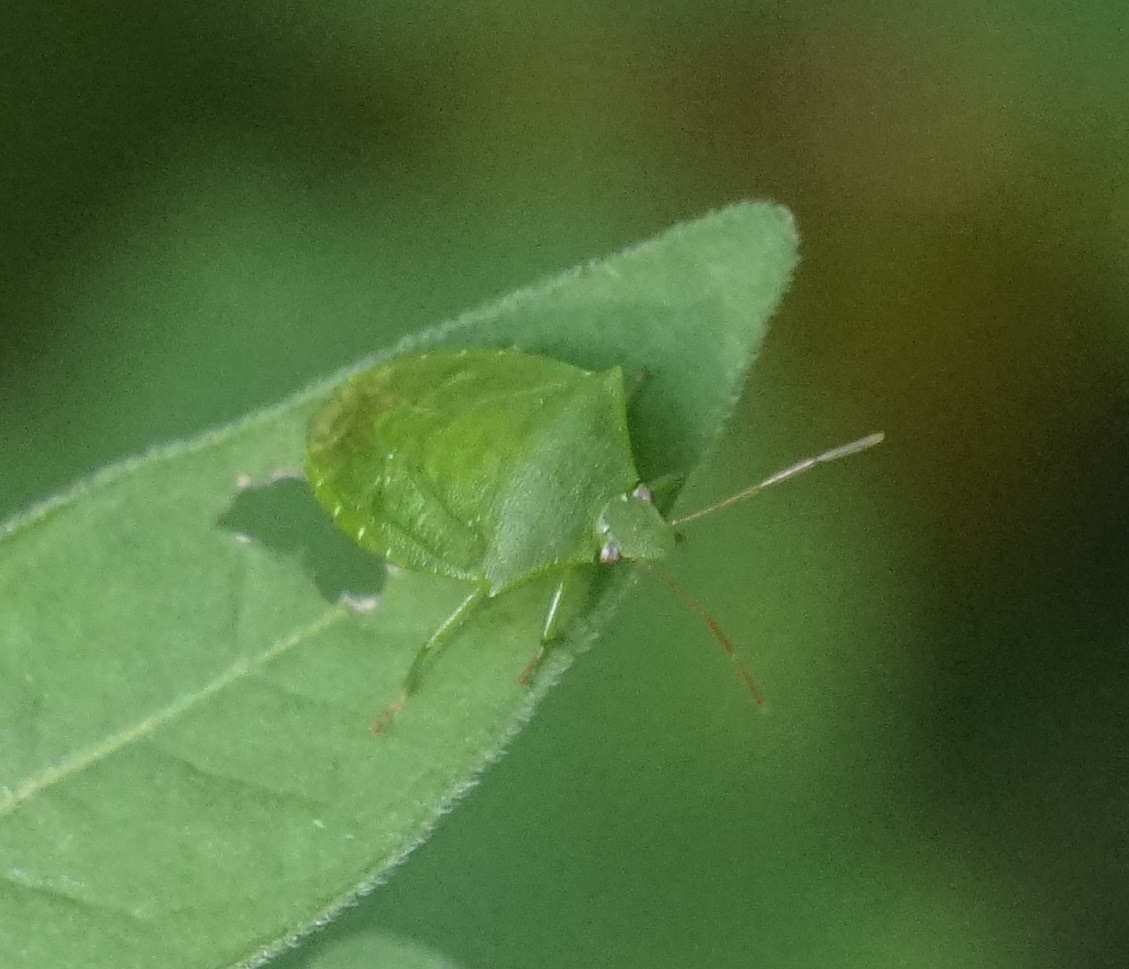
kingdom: Animalia
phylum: Arthropoda
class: Insecta
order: Hemiptera
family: Pentatomidae
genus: Cuspicona
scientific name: Cuspicona simplex
